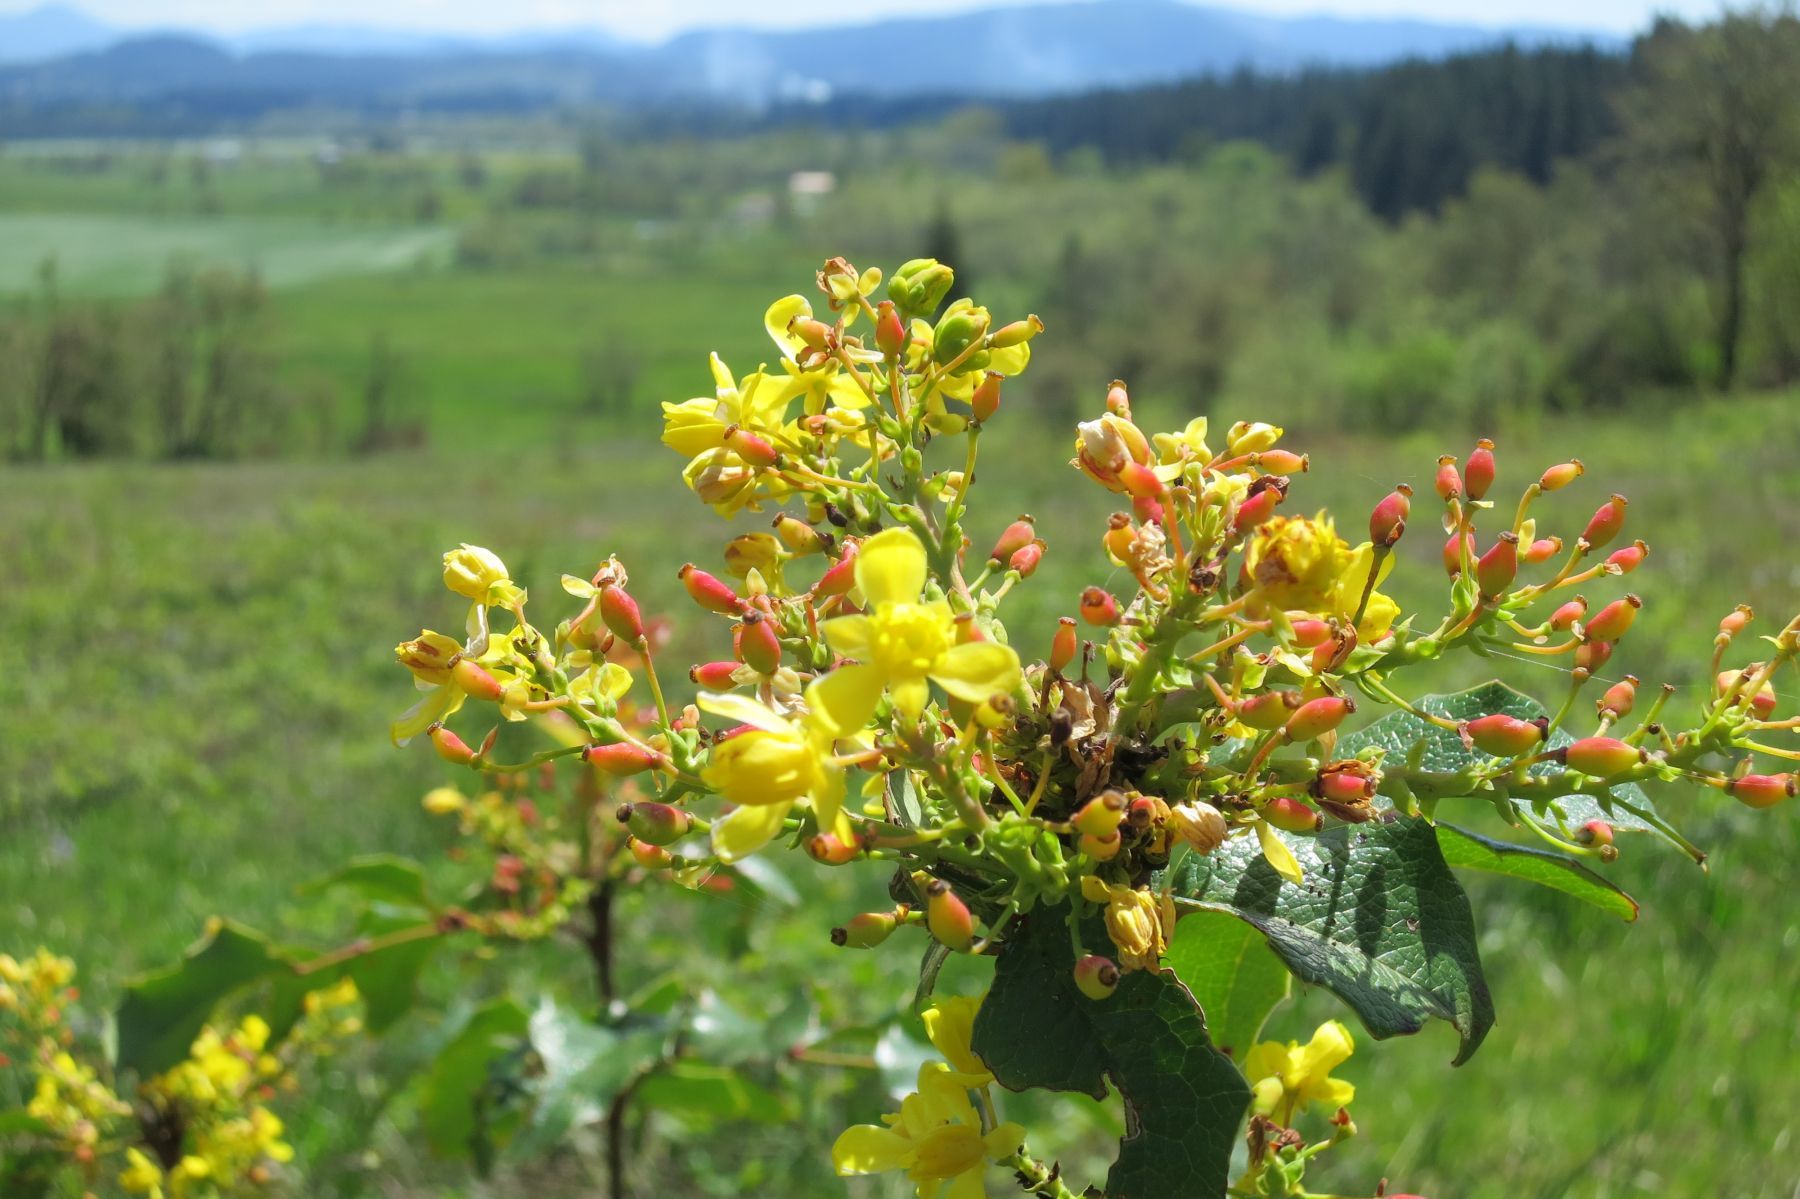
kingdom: Plantae
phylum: Tracheophyta
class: Magnoliopsida
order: Ranunculales
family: Berberidaceae
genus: Mahonia
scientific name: Mahonia aquifolium
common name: Oregon-grape
